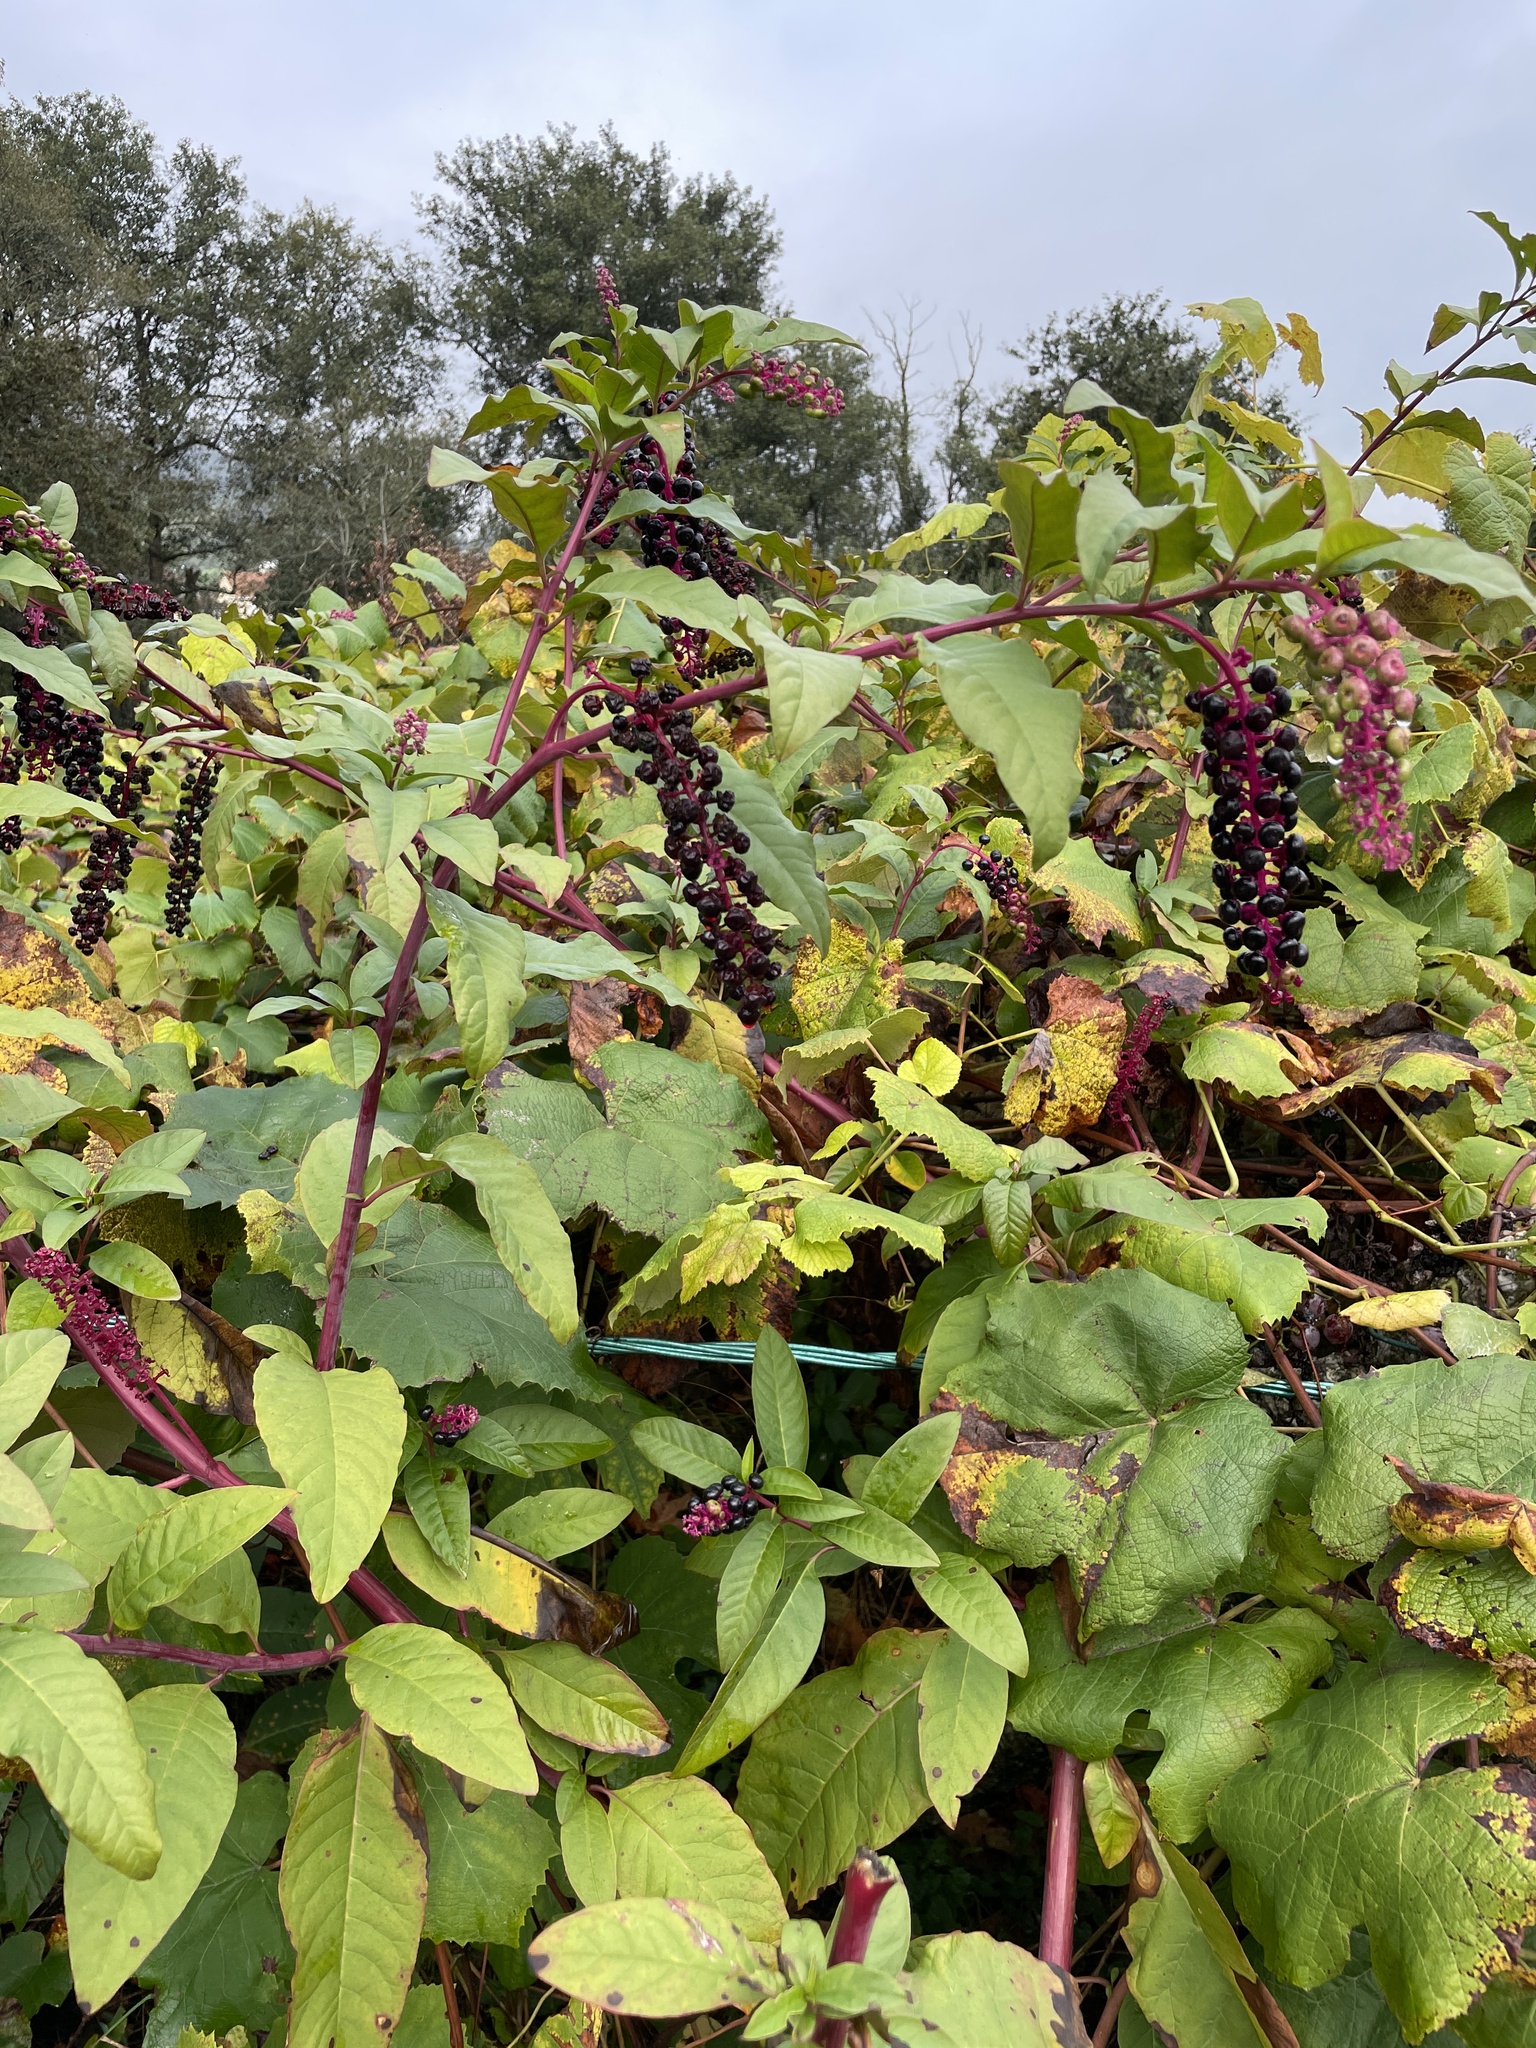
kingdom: Plantae
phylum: Tracheophyta
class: Magnoliopsida
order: Caryophyllales
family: Phytolaccaceae
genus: Phytolacca
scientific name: Phytolacca americana
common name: American pokeweed
